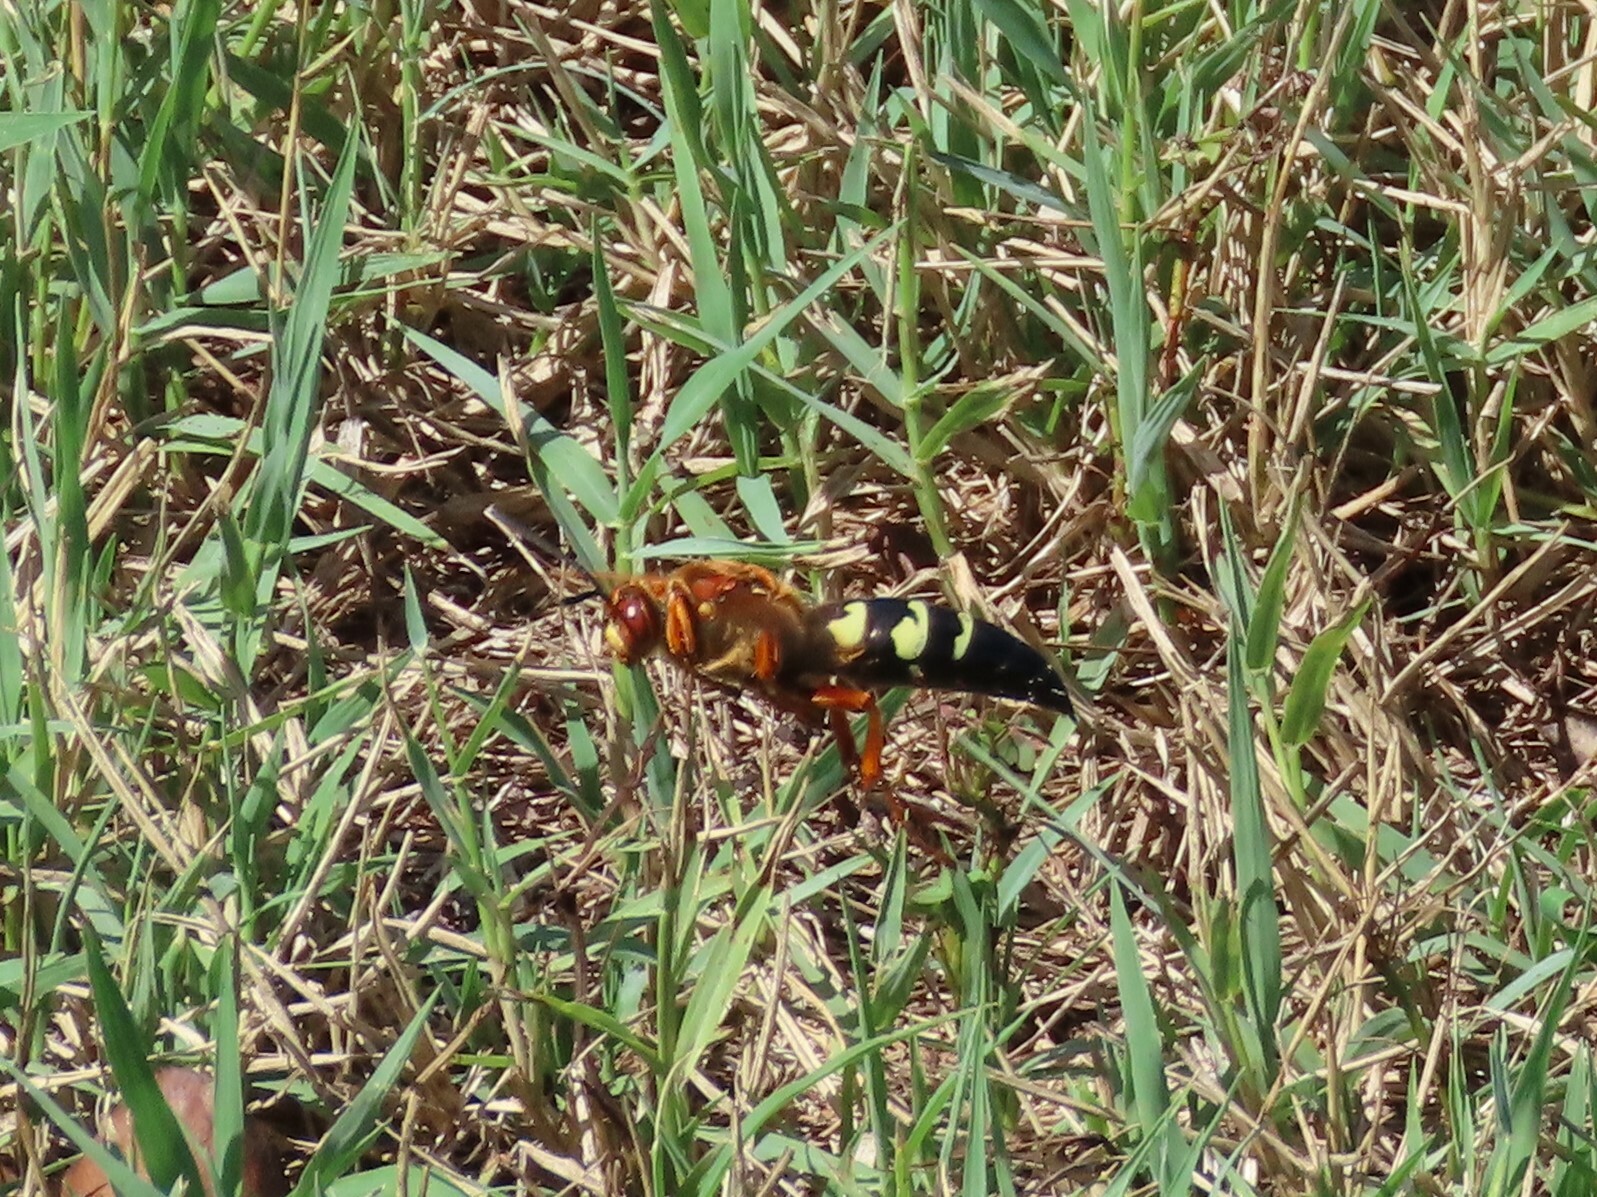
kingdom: Animalia
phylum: Arthropoda
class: Insecta
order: Hymenoptera
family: Crabronidae
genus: Sphecius
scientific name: Sphecius speciosus
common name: Cicada killer
